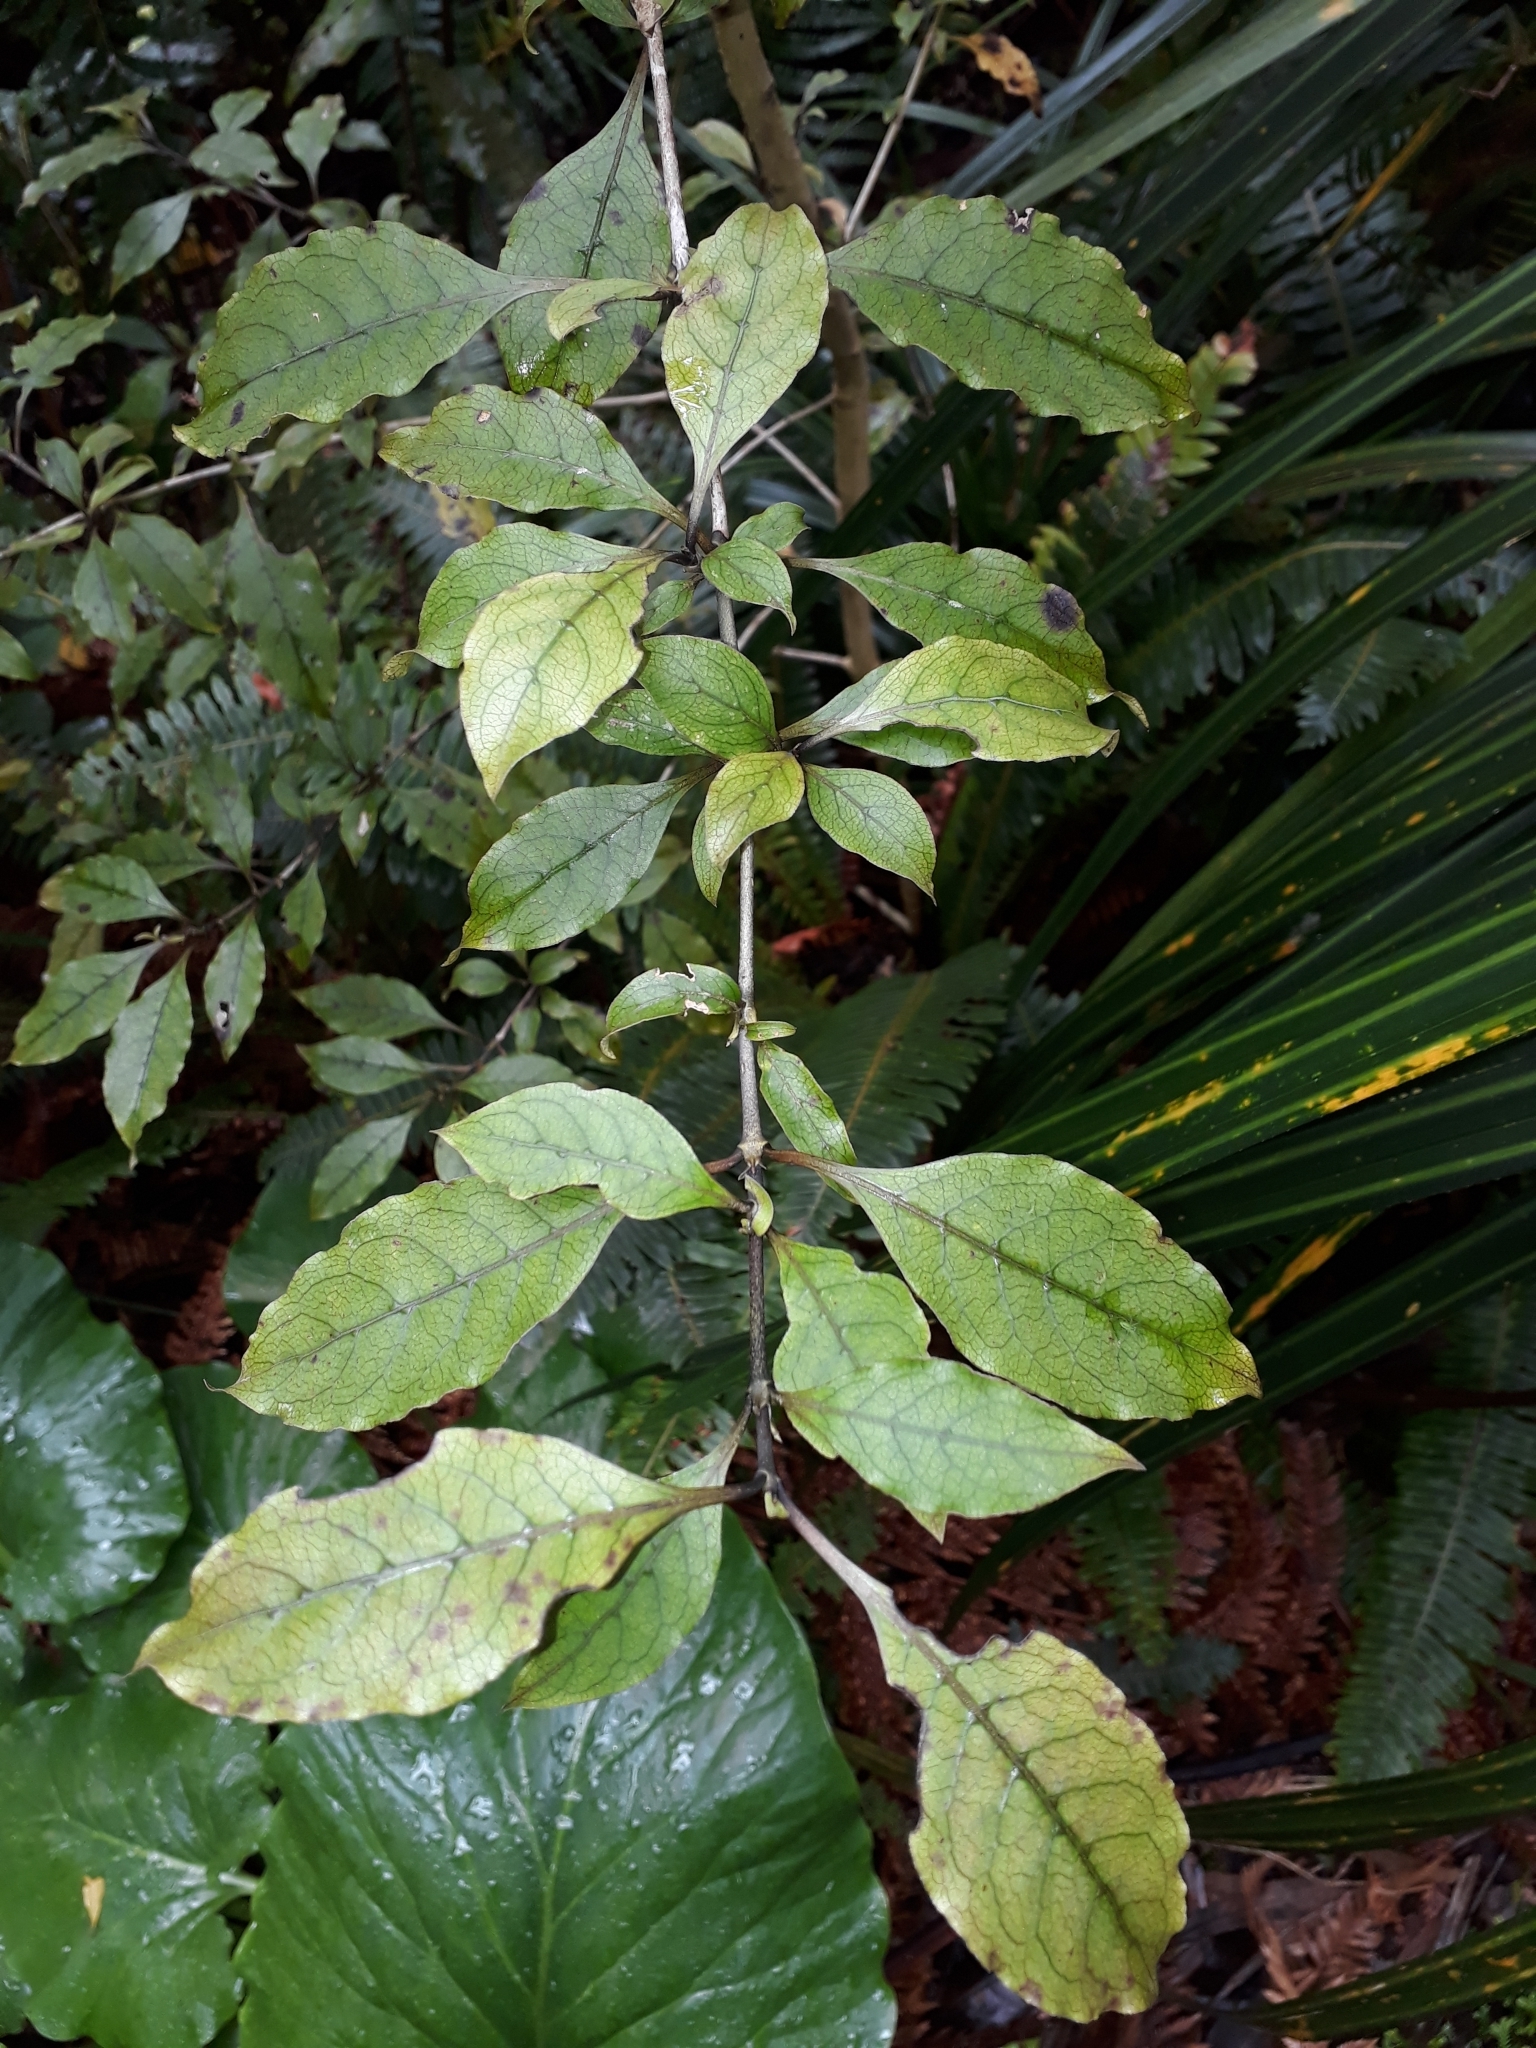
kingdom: Plantae
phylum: Tracheophyta
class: Magnoliopsida
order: Gentianales
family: Rubiaceae
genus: Coprosma
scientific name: Coprosma tenuifolia
